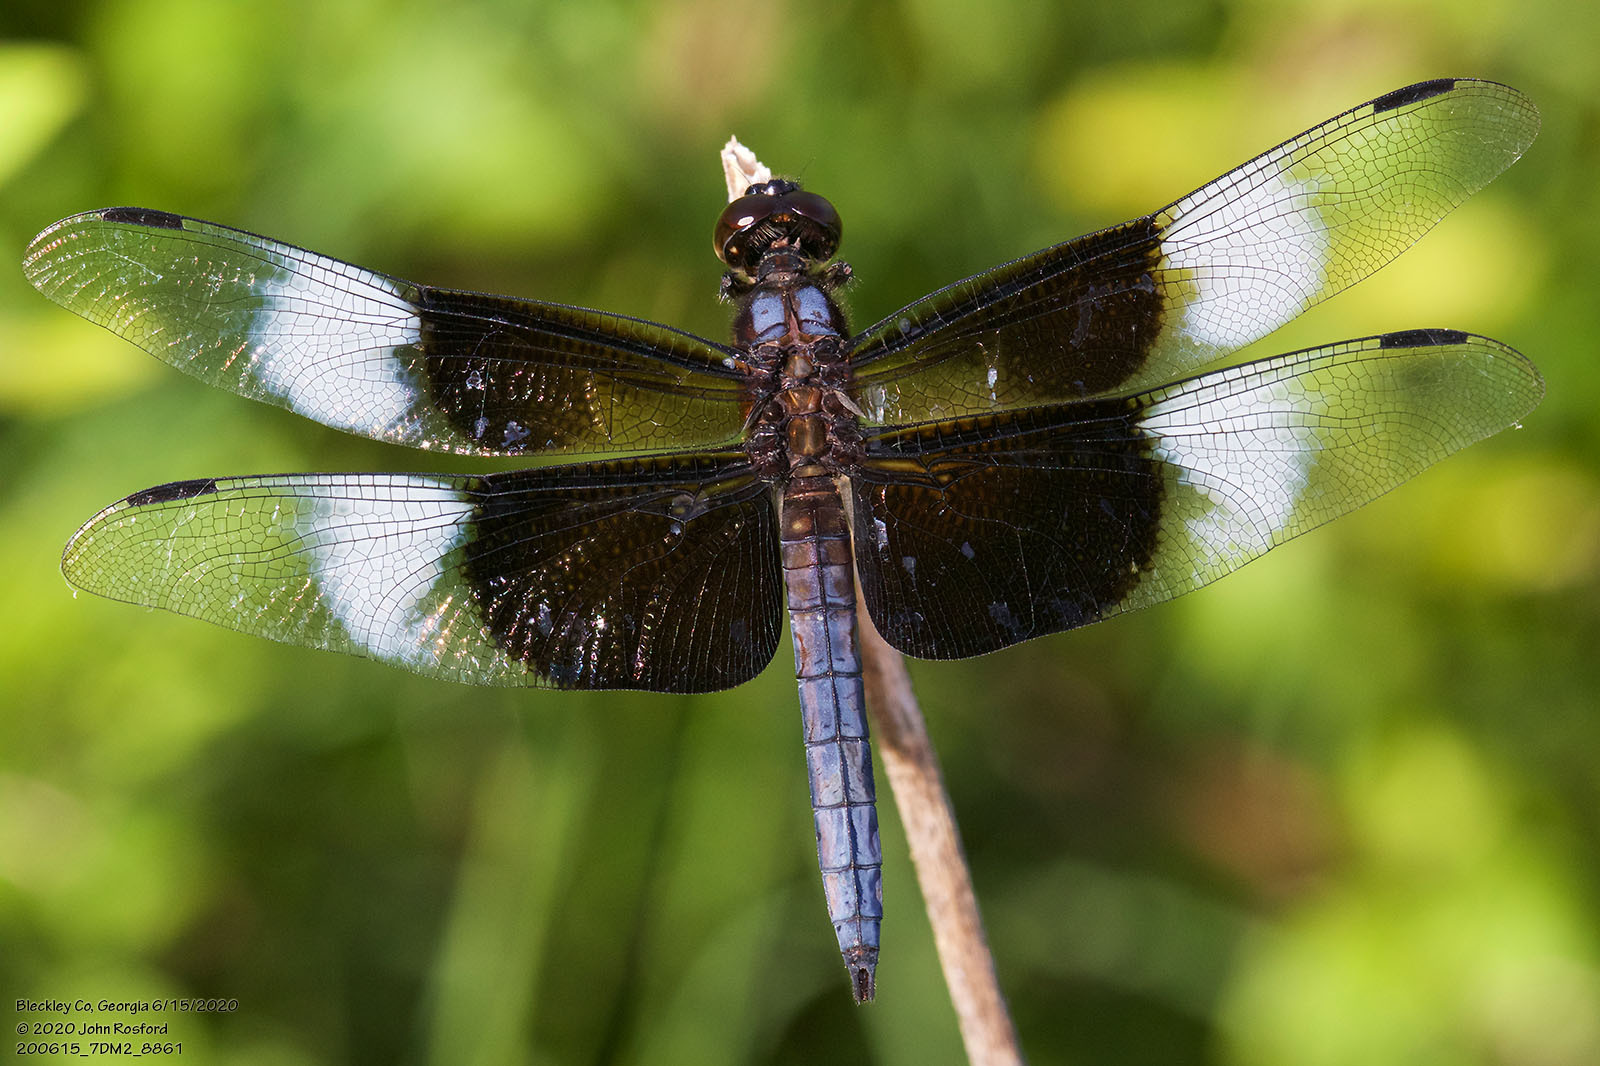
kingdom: Animalia
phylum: Arthropoda
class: Insecta
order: Odonata
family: Libellulidae
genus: Libellula
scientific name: Libellula luctuosa
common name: Widow skimmer
